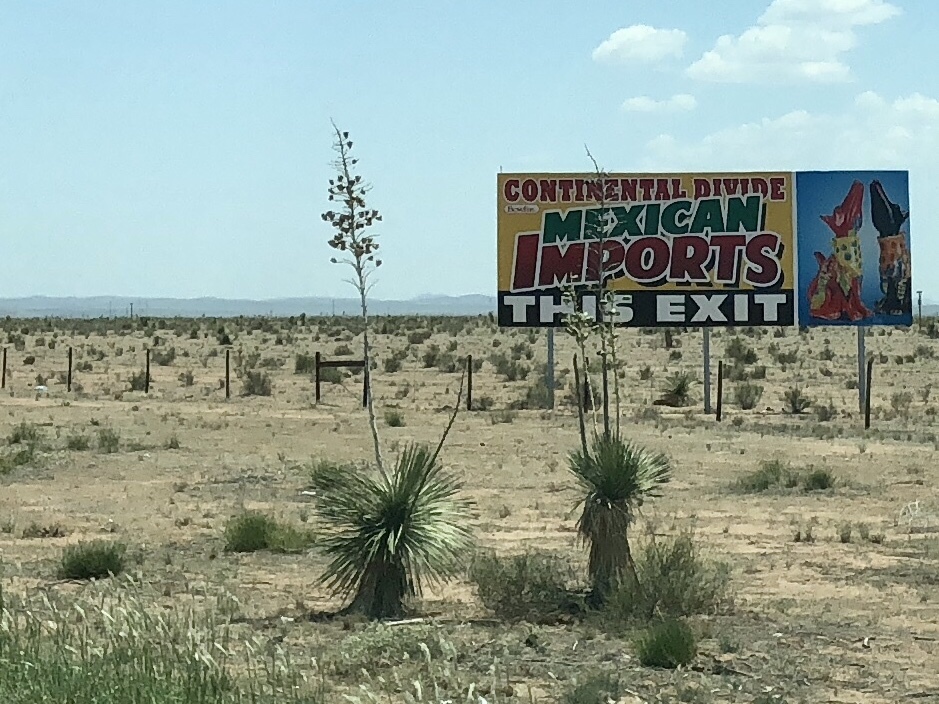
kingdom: Plantae
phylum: Tracheophyta
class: Liliopsida
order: Asparagales
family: Asparagaceae
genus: Yucca
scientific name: Yucca elata
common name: Palmella
